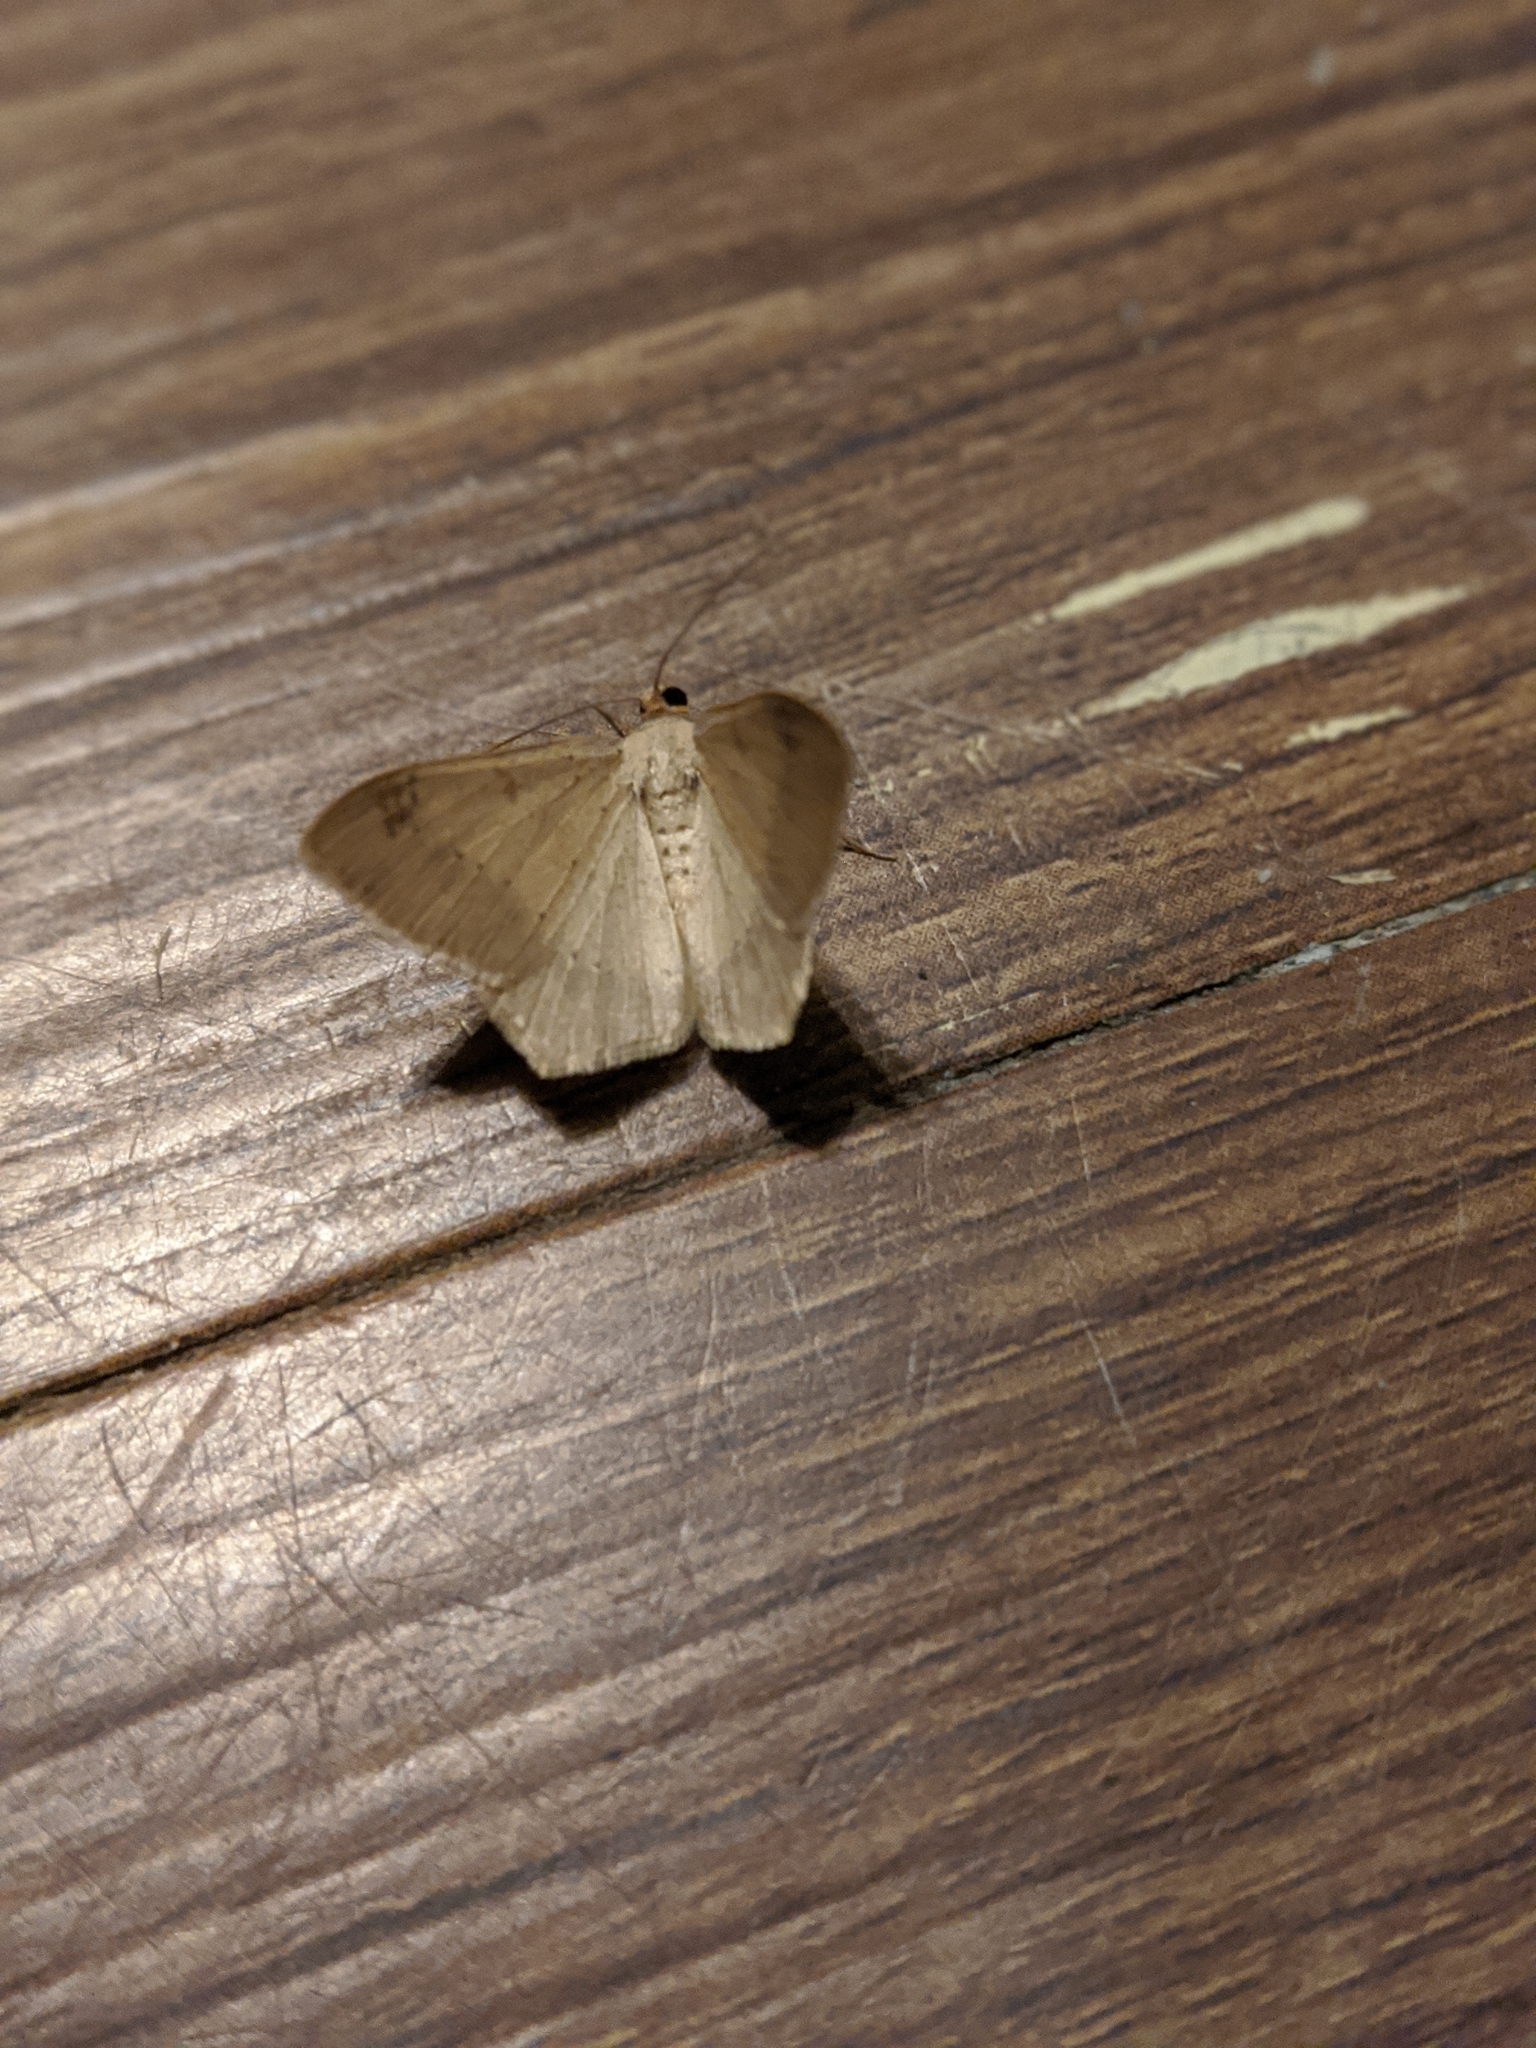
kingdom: Animalia
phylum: Arthropoda
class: Insecta
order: Lepidoptera
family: Geometridae
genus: Macaria
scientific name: Macaria abydata
